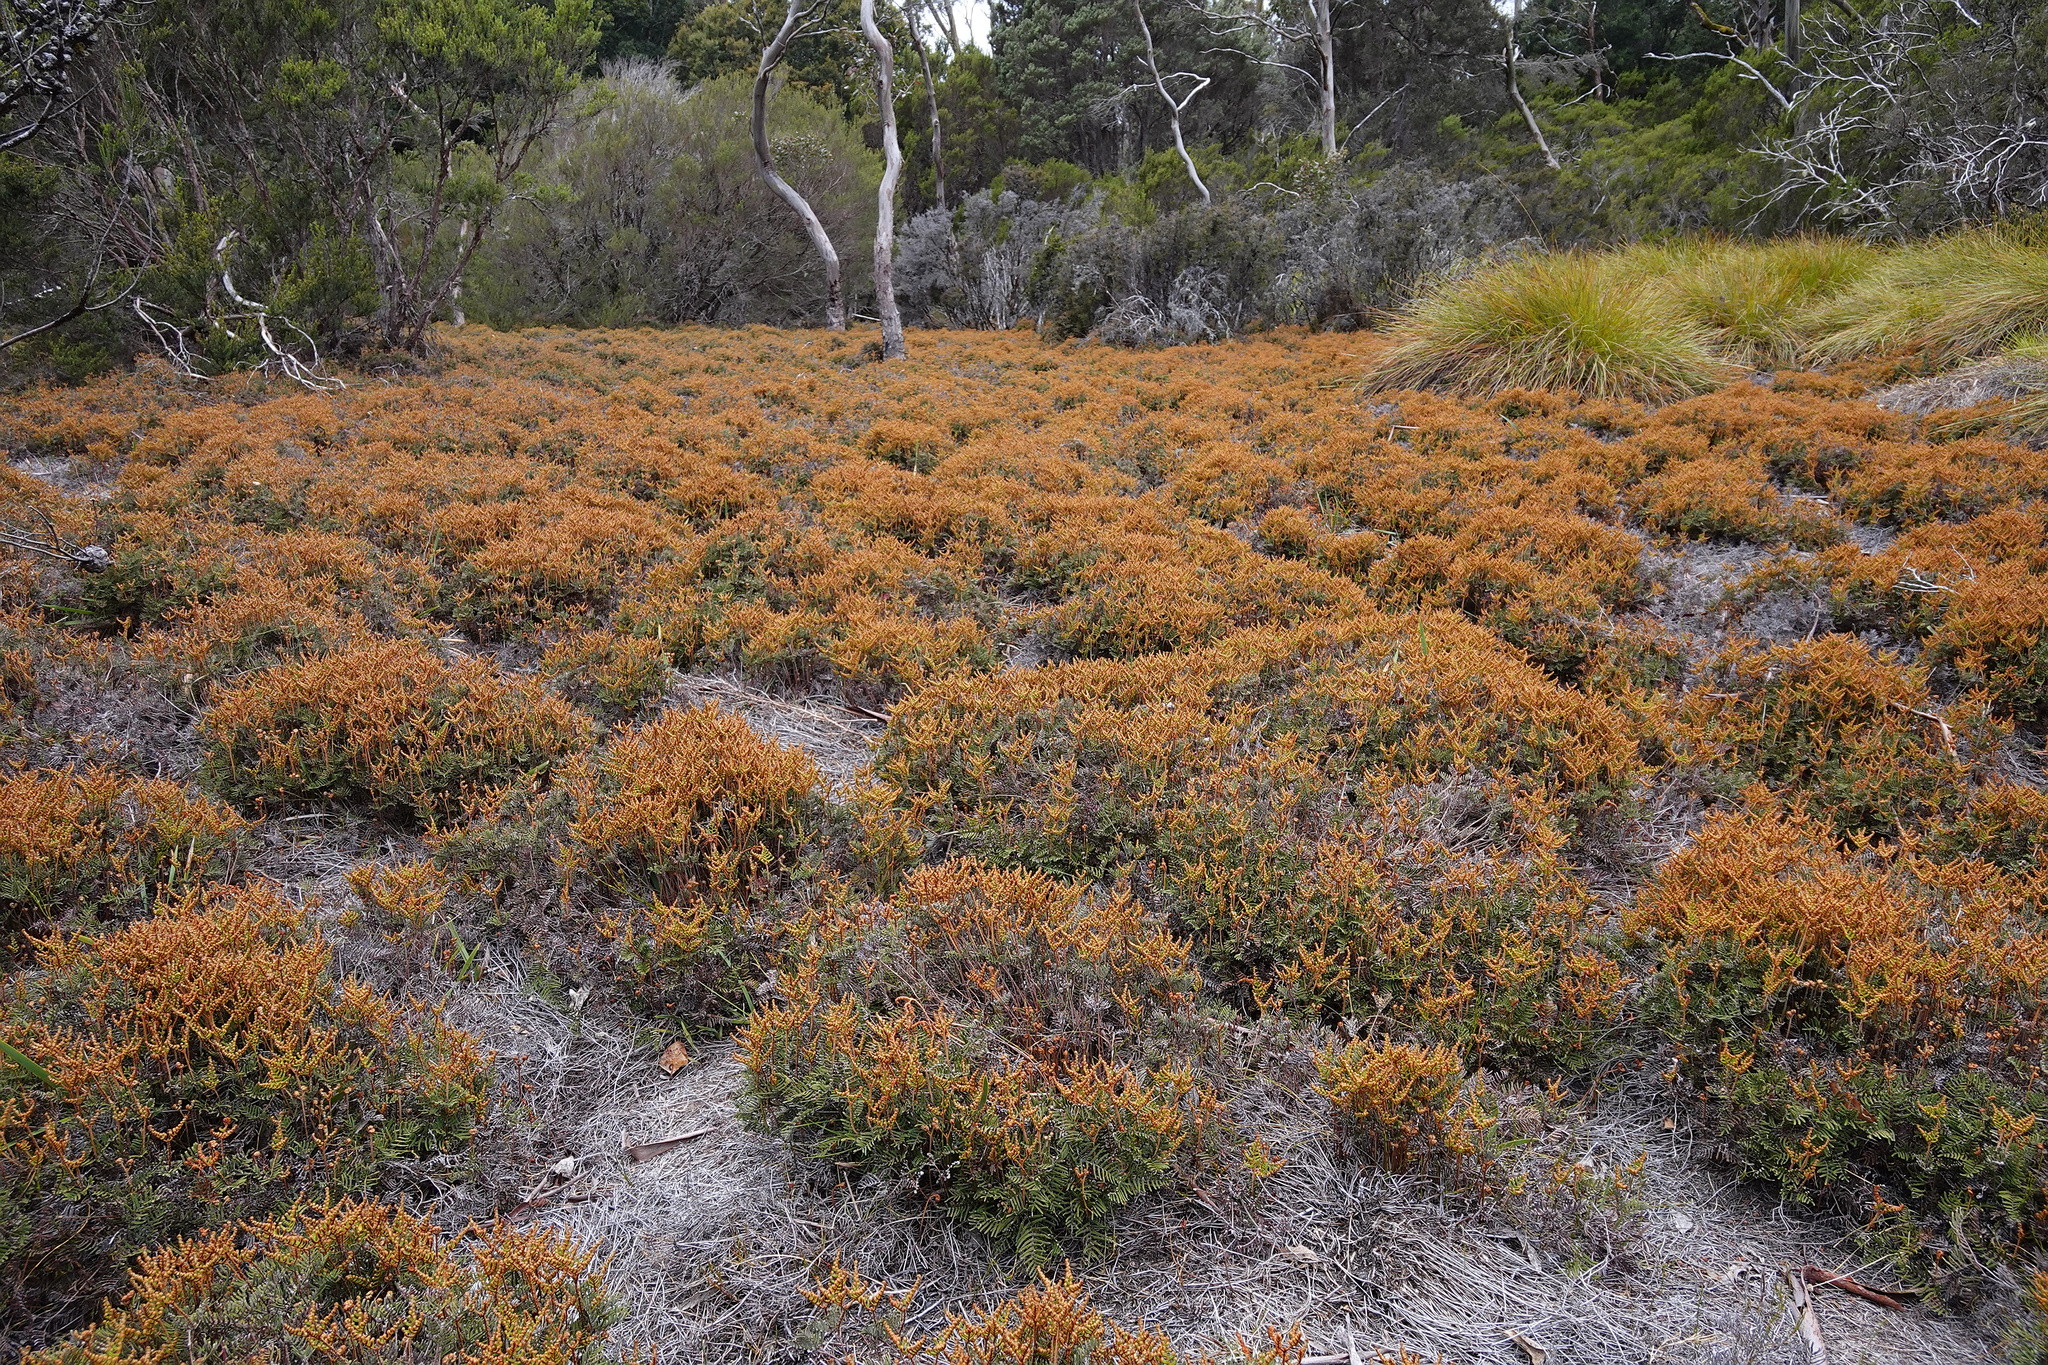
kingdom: Plantae
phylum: Tracheophyta
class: Polypodiopsida
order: Gleicheniales
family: Gleicheniaceae
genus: Gleichenia
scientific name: Gleichenia alpina
